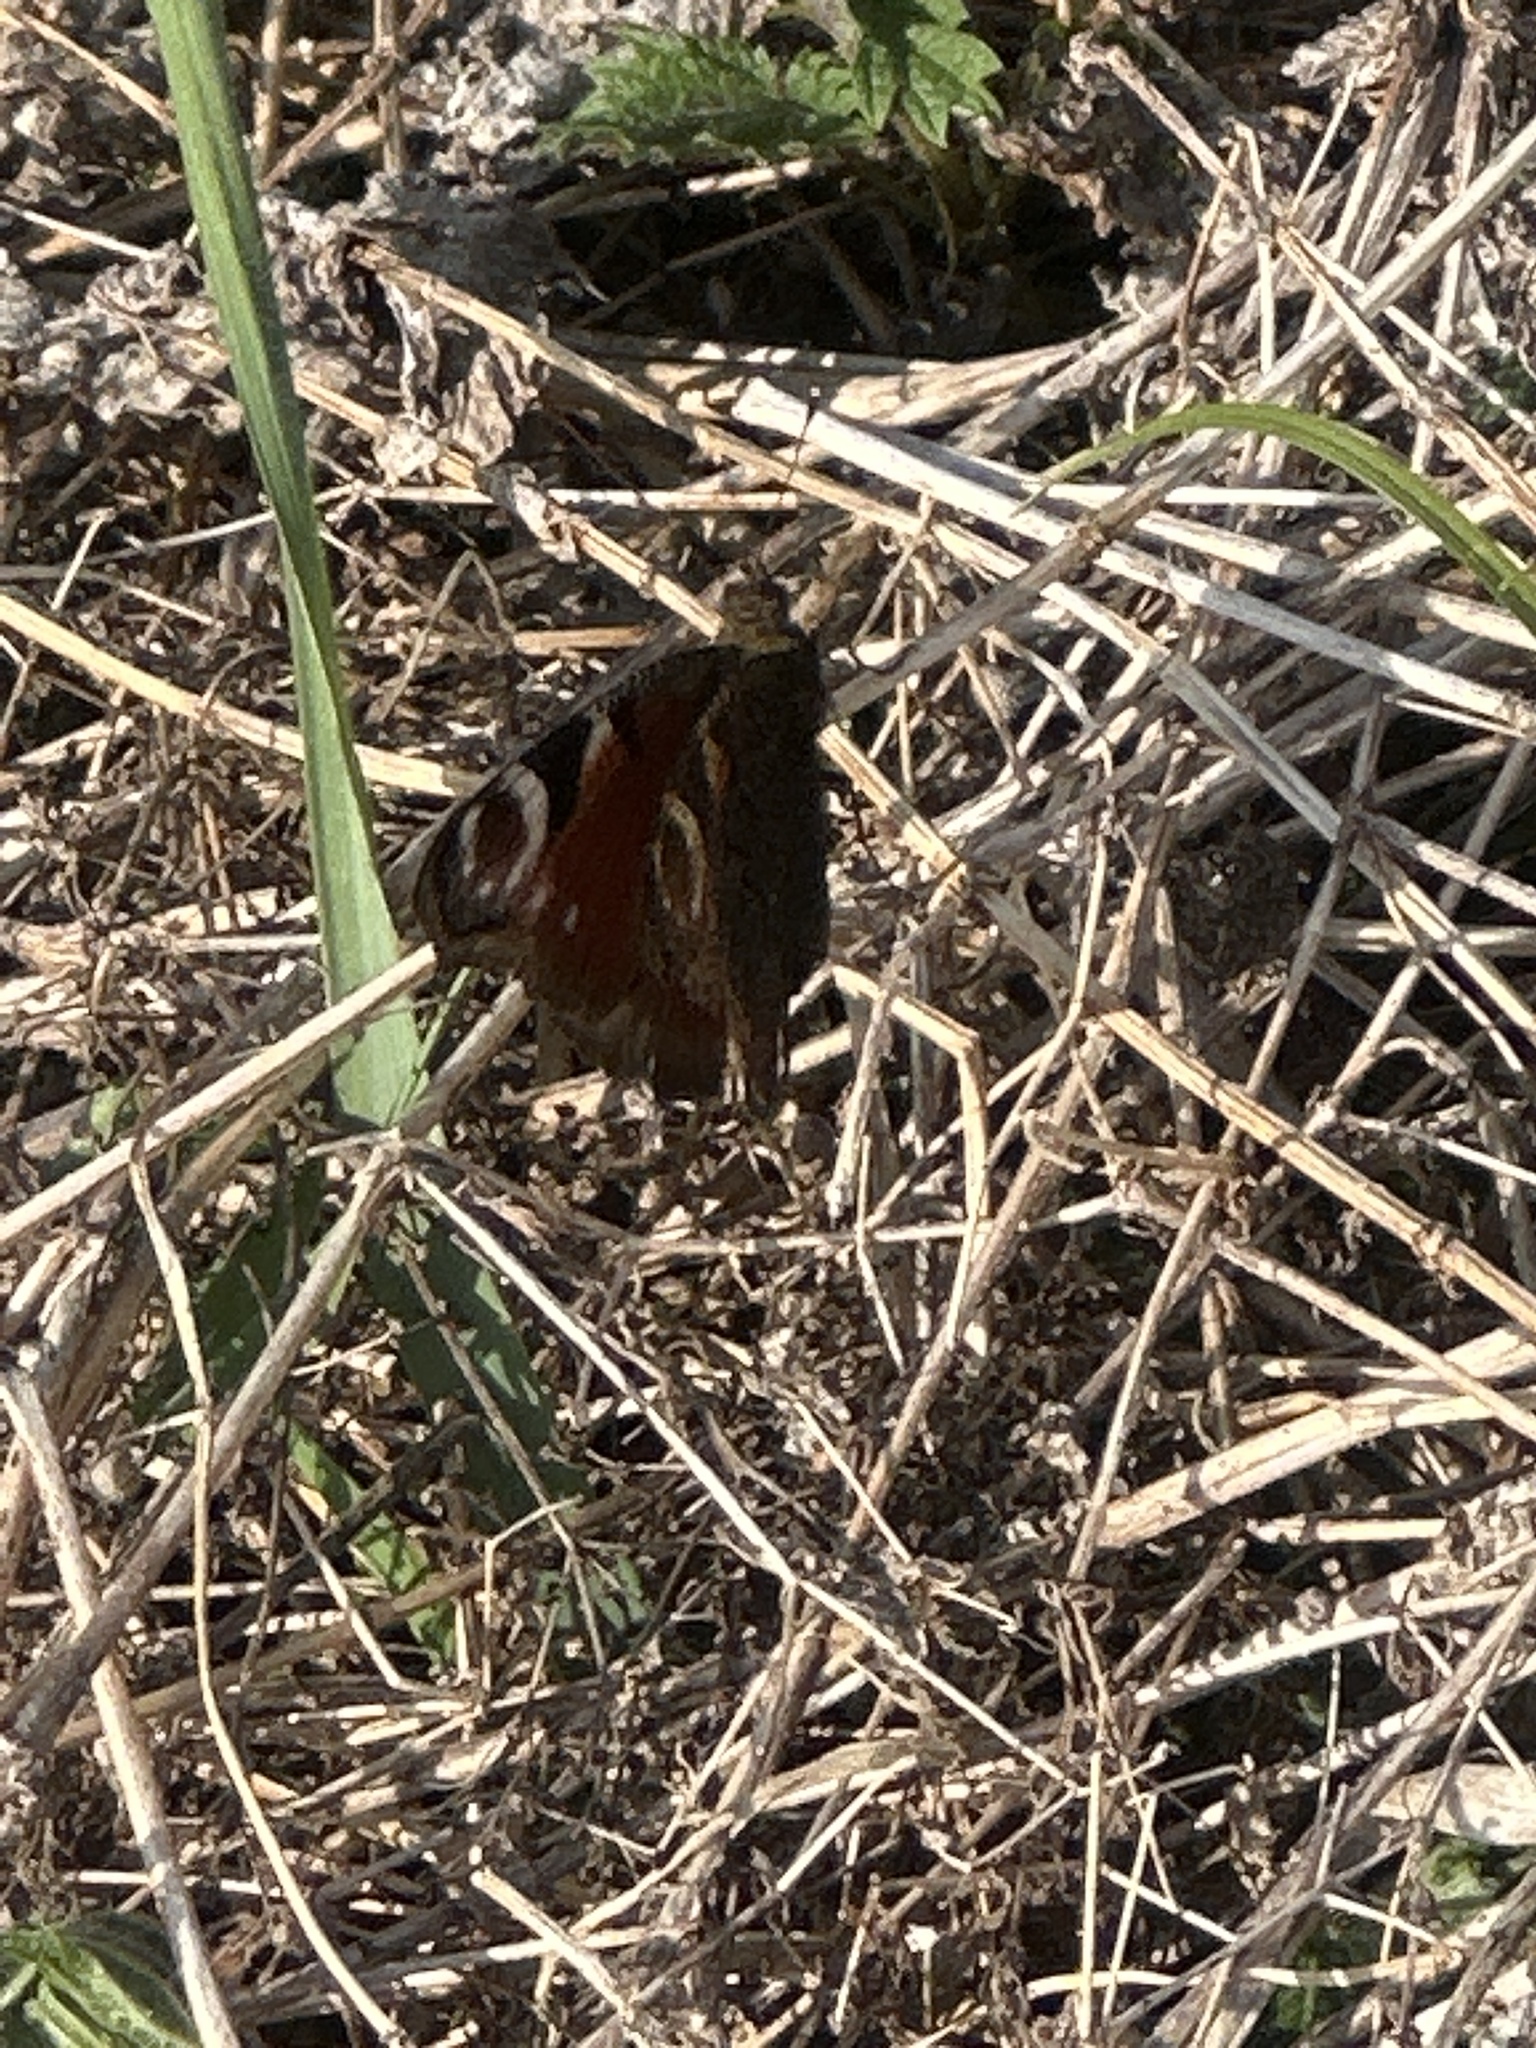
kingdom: Animalia
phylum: Arthropoda
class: Insecta
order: Lepidoptera
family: Nymphalidae
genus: Aglais
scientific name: Aglais io
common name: Peacock
